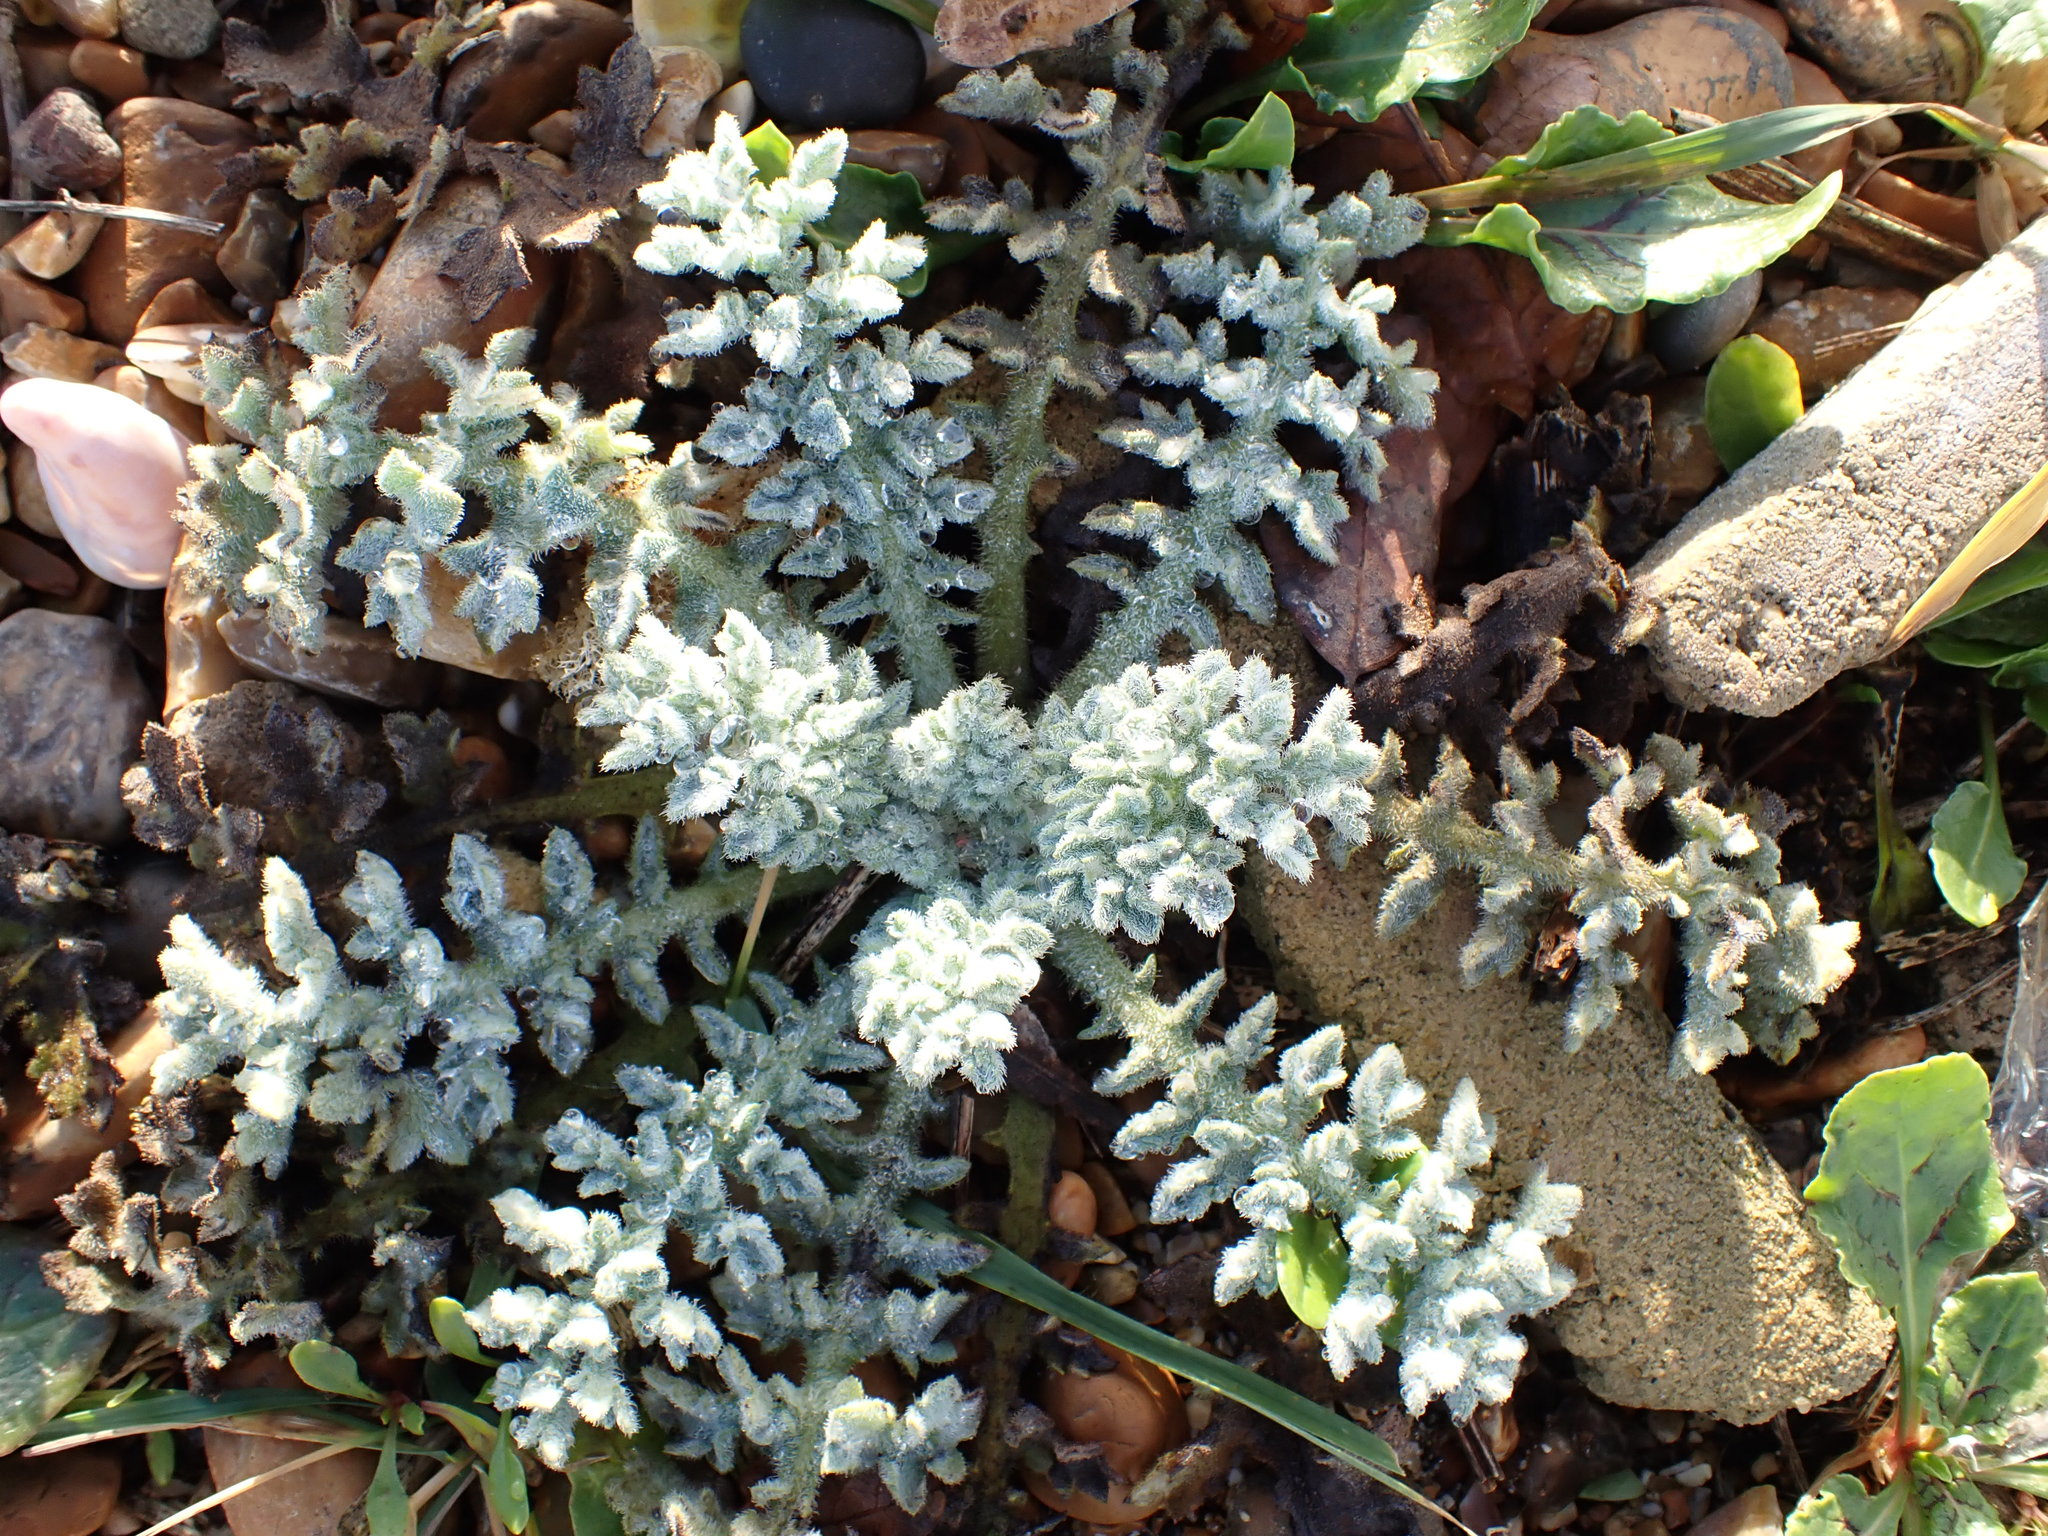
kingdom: Plantae
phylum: Tracheophyta
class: Magnoliopsida
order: Ranunculales
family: Papaveraceae
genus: Glaucium
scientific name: Glaucium flavum
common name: Yellow horned-poppy
